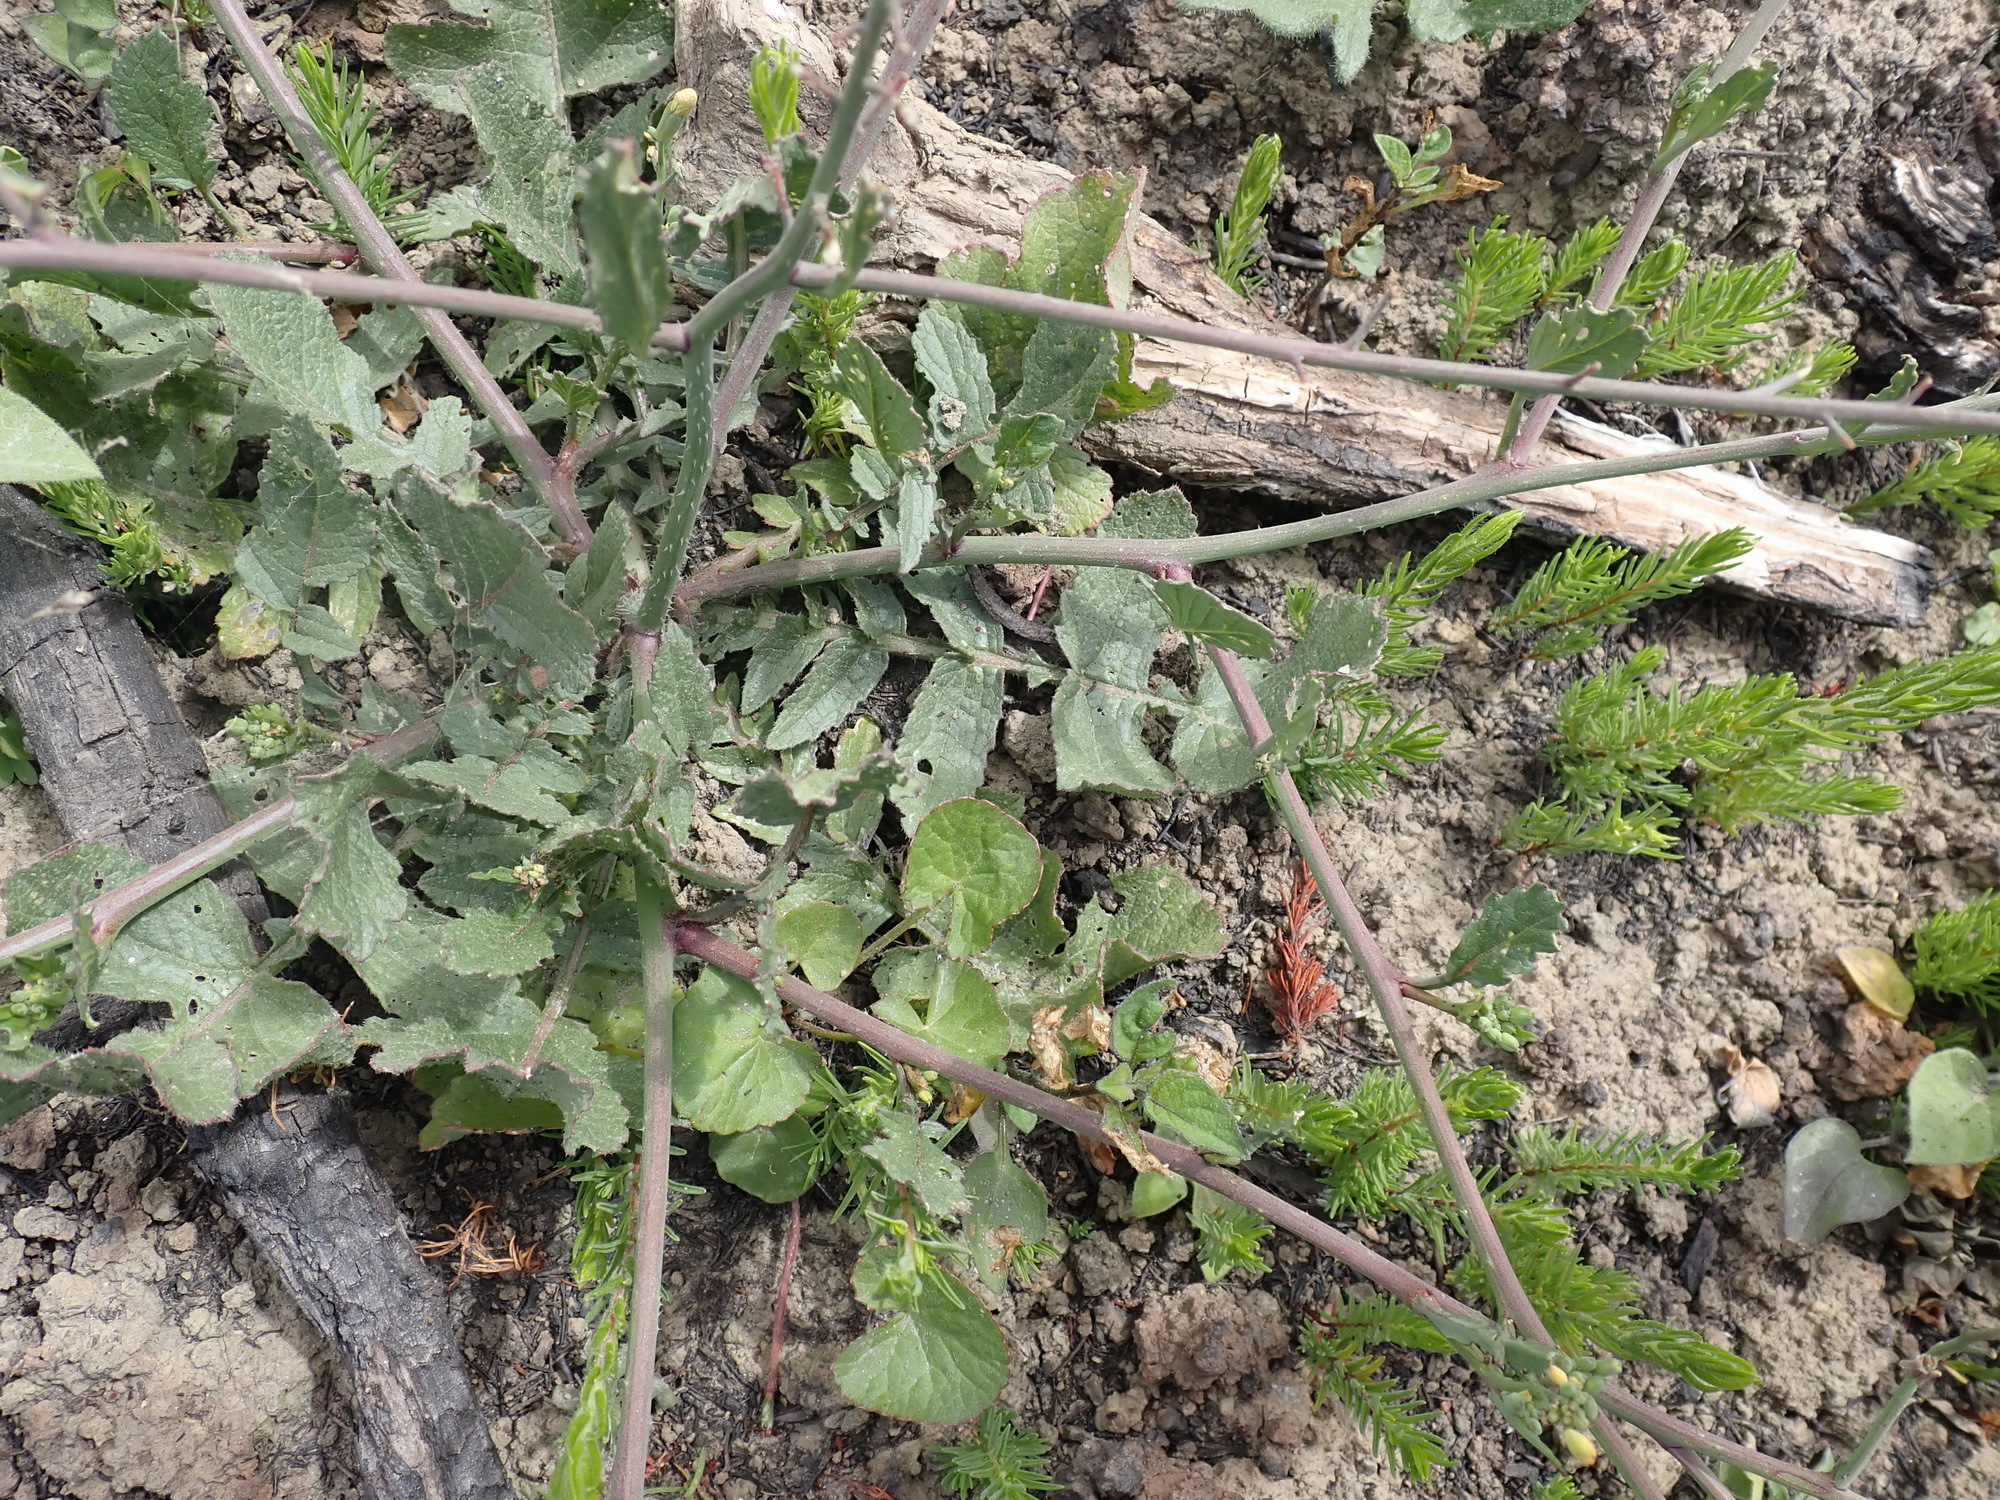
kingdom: Plantae
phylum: Tracheophyta
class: Magnoliopsida
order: Brassicales
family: Brassicaceae
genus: Raphanus
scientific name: Raphanus raphanistrum
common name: Wild radish
